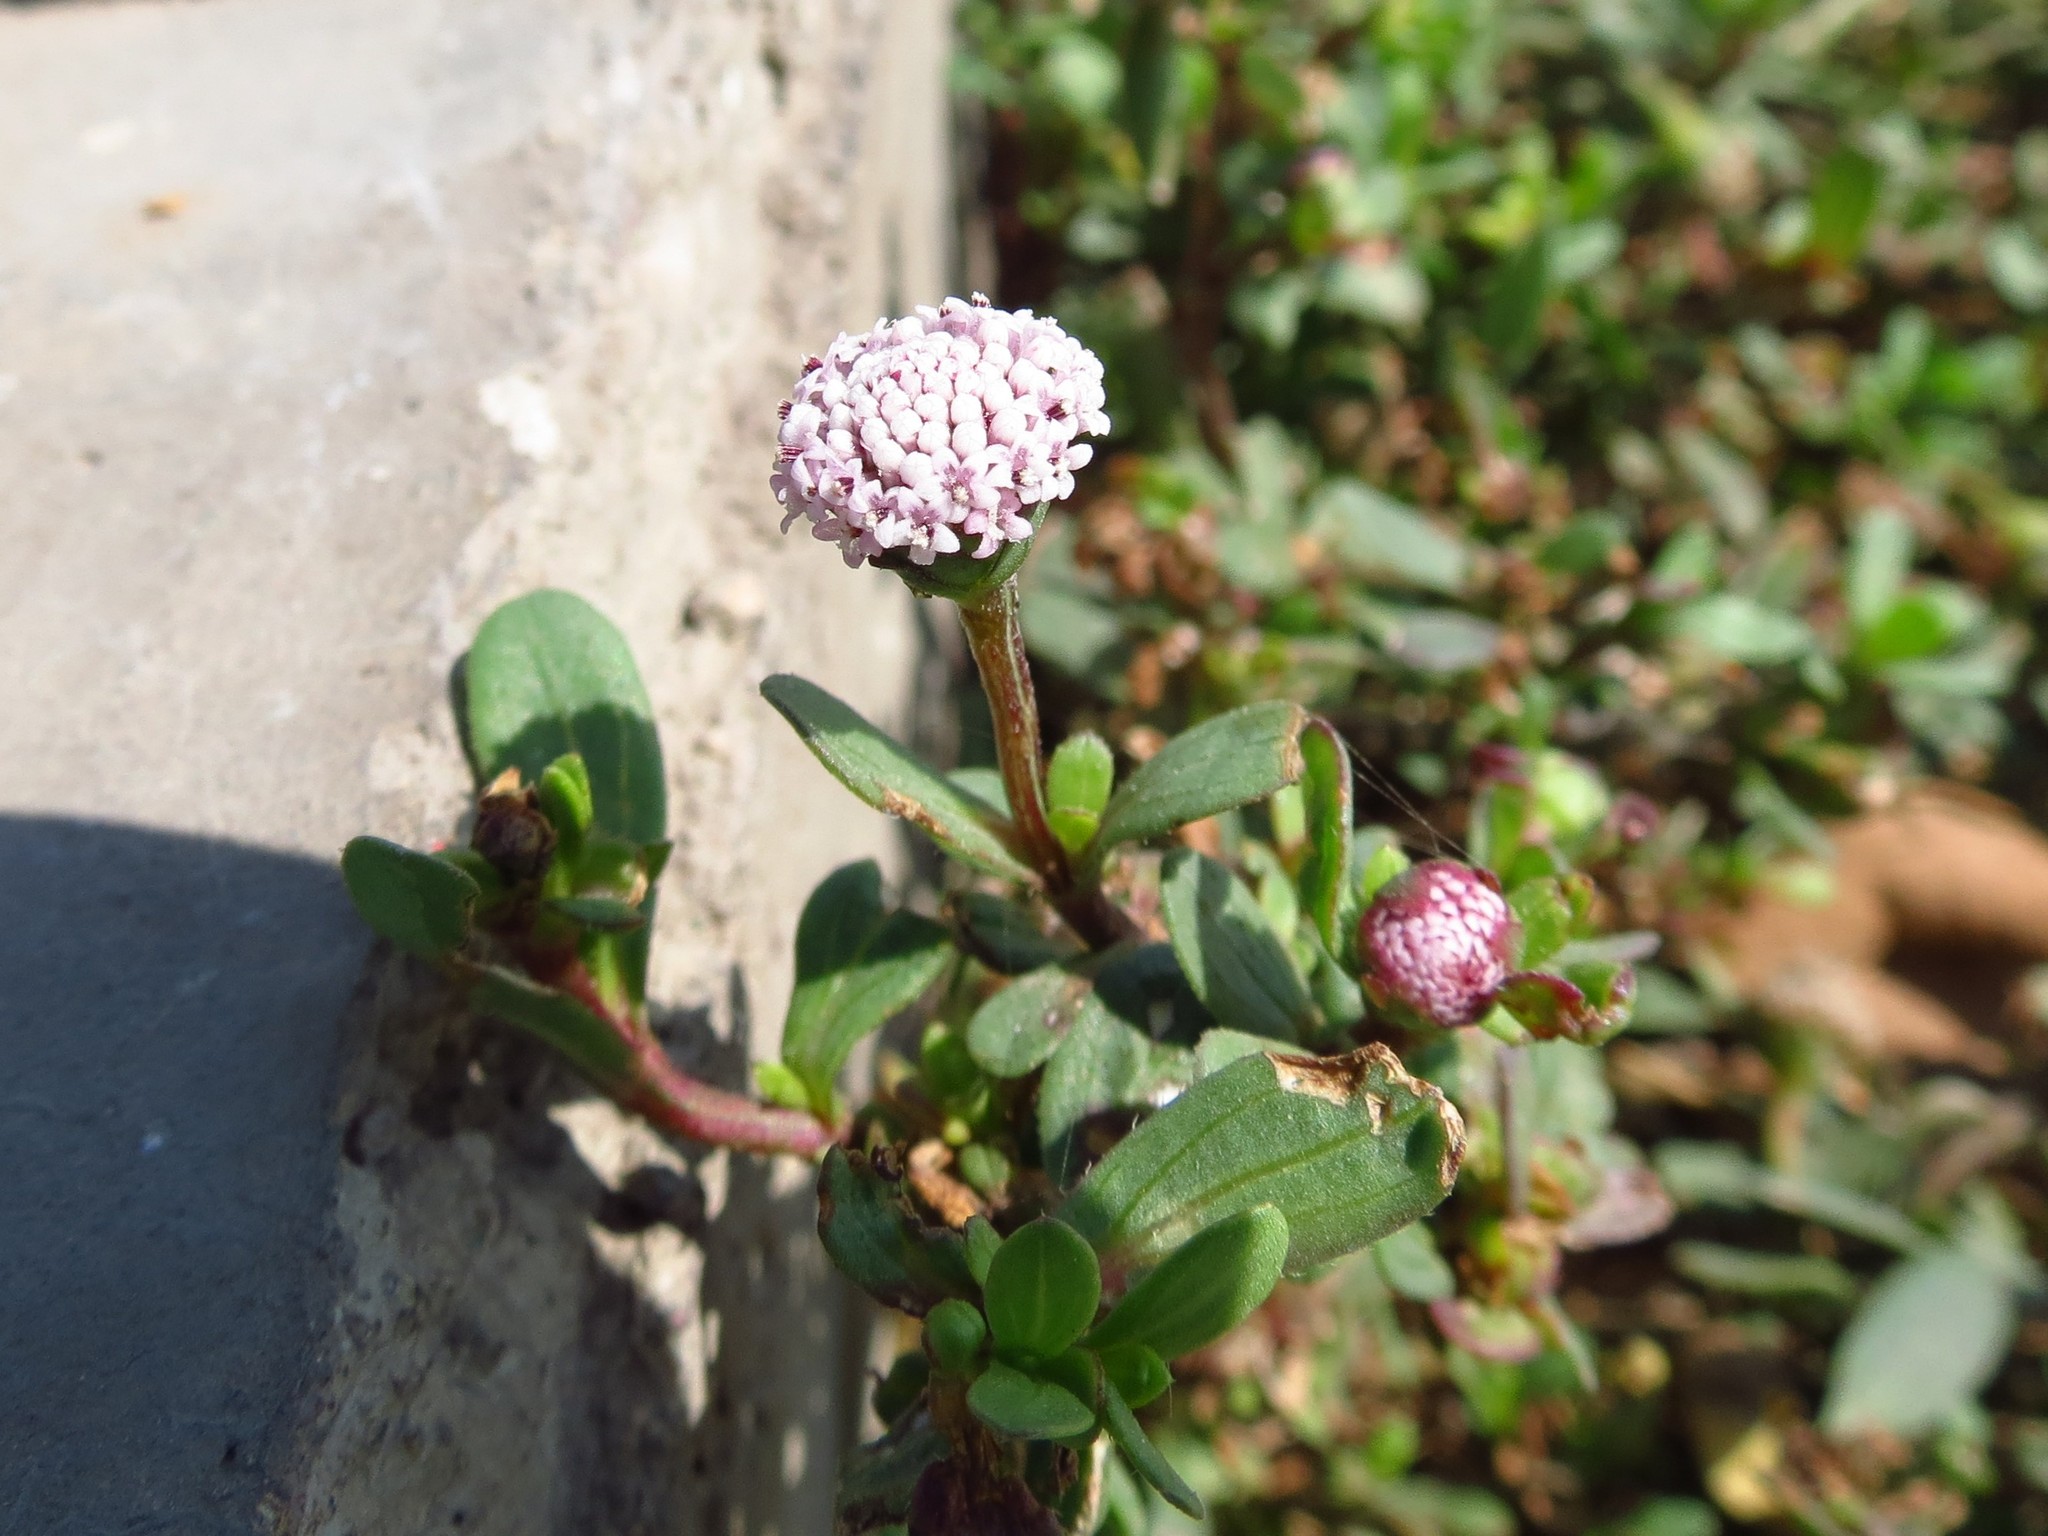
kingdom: Plantae
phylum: Tracheophyta
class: Magnoliopsida
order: Asterales
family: Asteraceae
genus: Spilanthes
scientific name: Spilanthes leiocarpa
